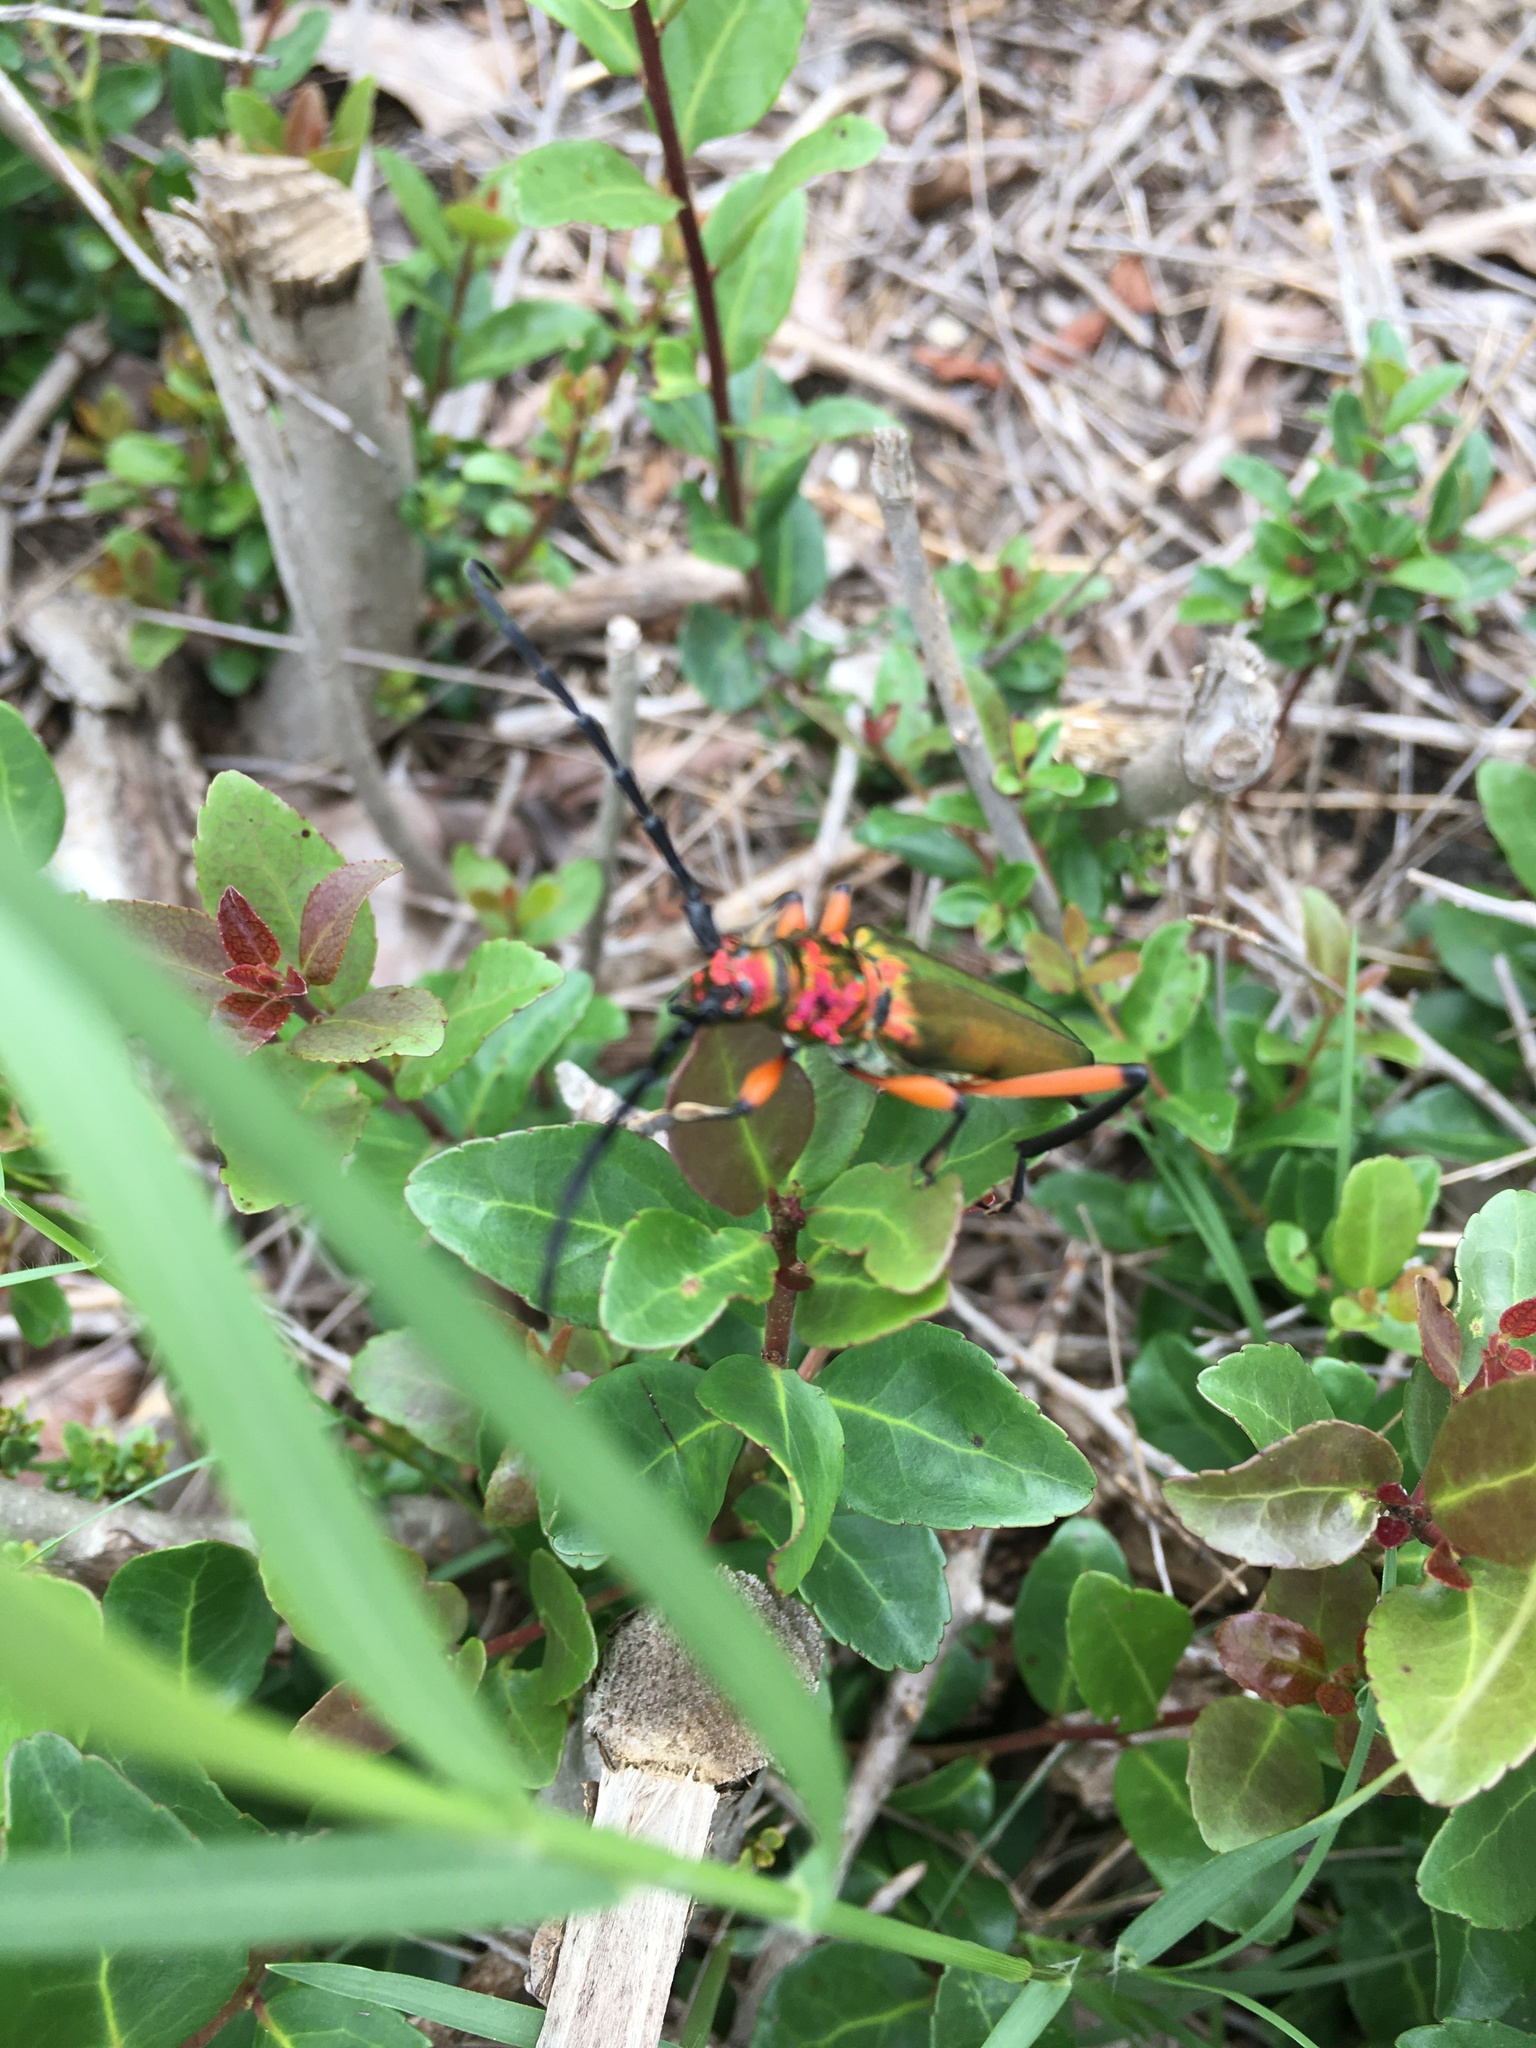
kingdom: Animalia
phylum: Arthropoda
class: Insecta
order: Coleoptera
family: Cerambycidae
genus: Plinthocoelium
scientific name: Plinthocoelium suaveolens
